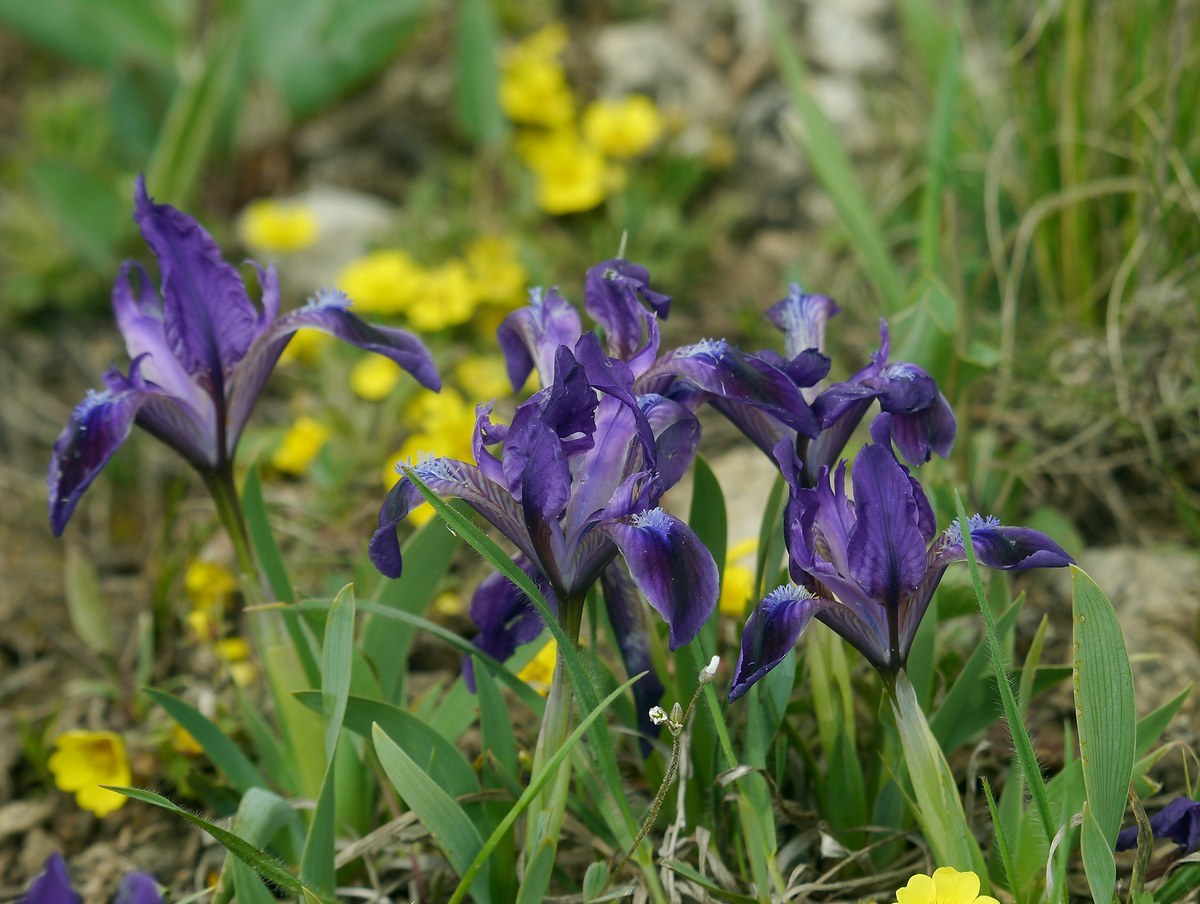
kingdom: Plantae
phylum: Tracheophyta
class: Liliopsida
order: Asparagales
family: Iridaceae
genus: Iris
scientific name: Iris pumila
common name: Dwarf iris
